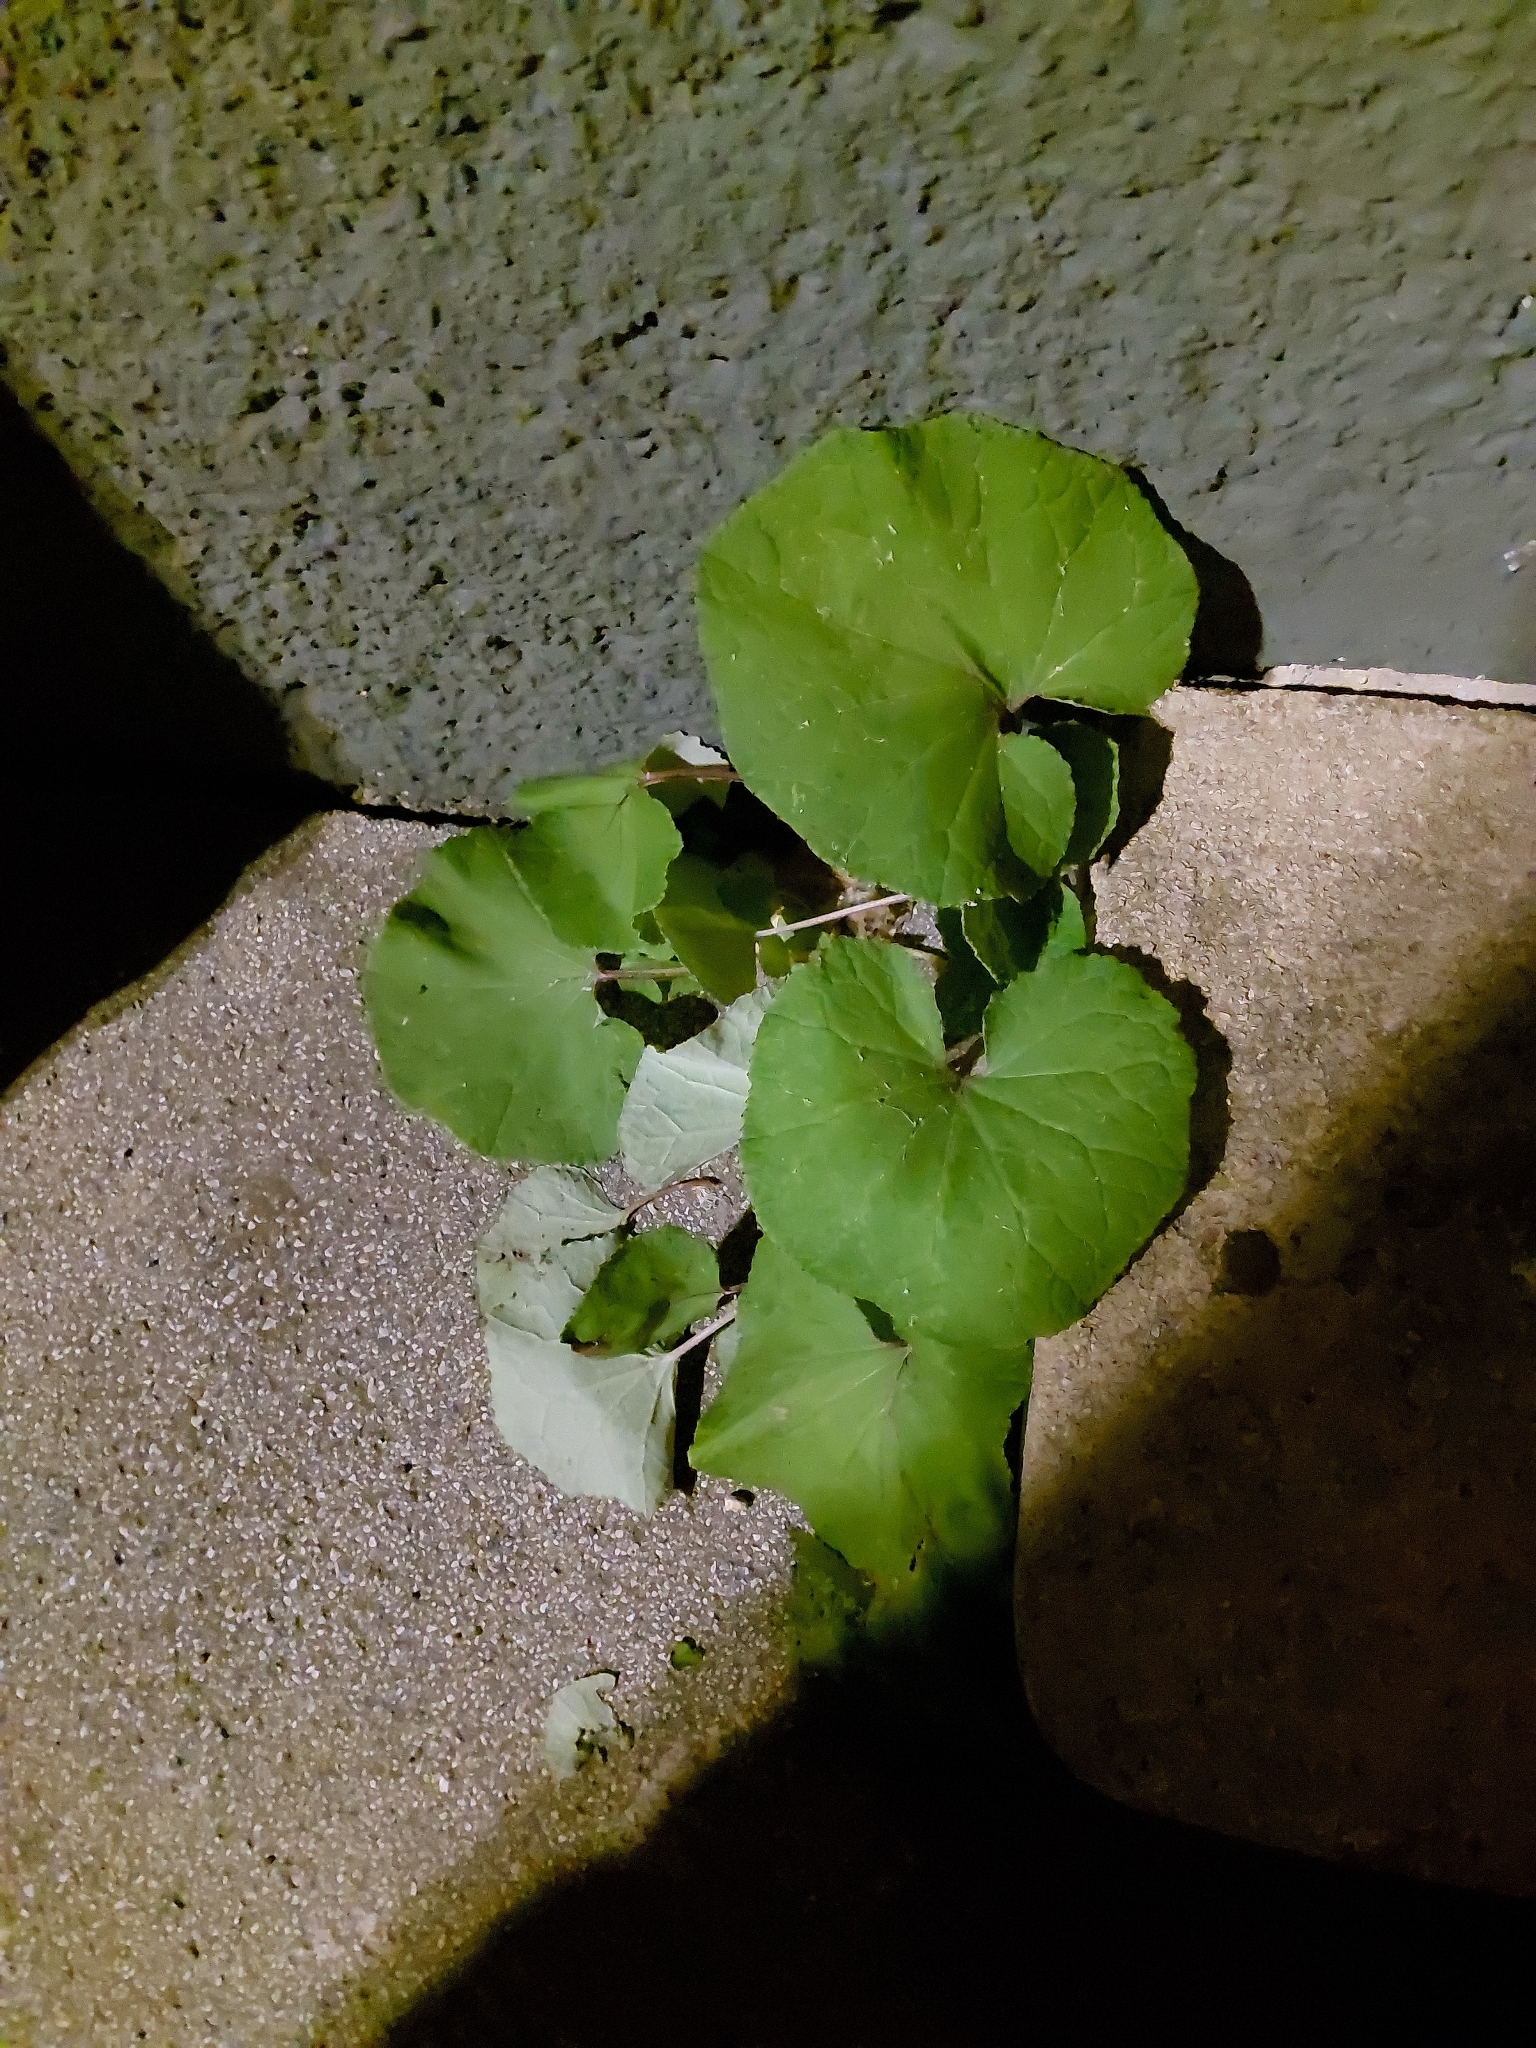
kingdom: Plantae
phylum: Tracheophyta
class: Magnoliopsida
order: Asterales
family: Asteraceae
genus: Tussilago
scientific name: Tussilago farfara
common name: Coltsfoot
